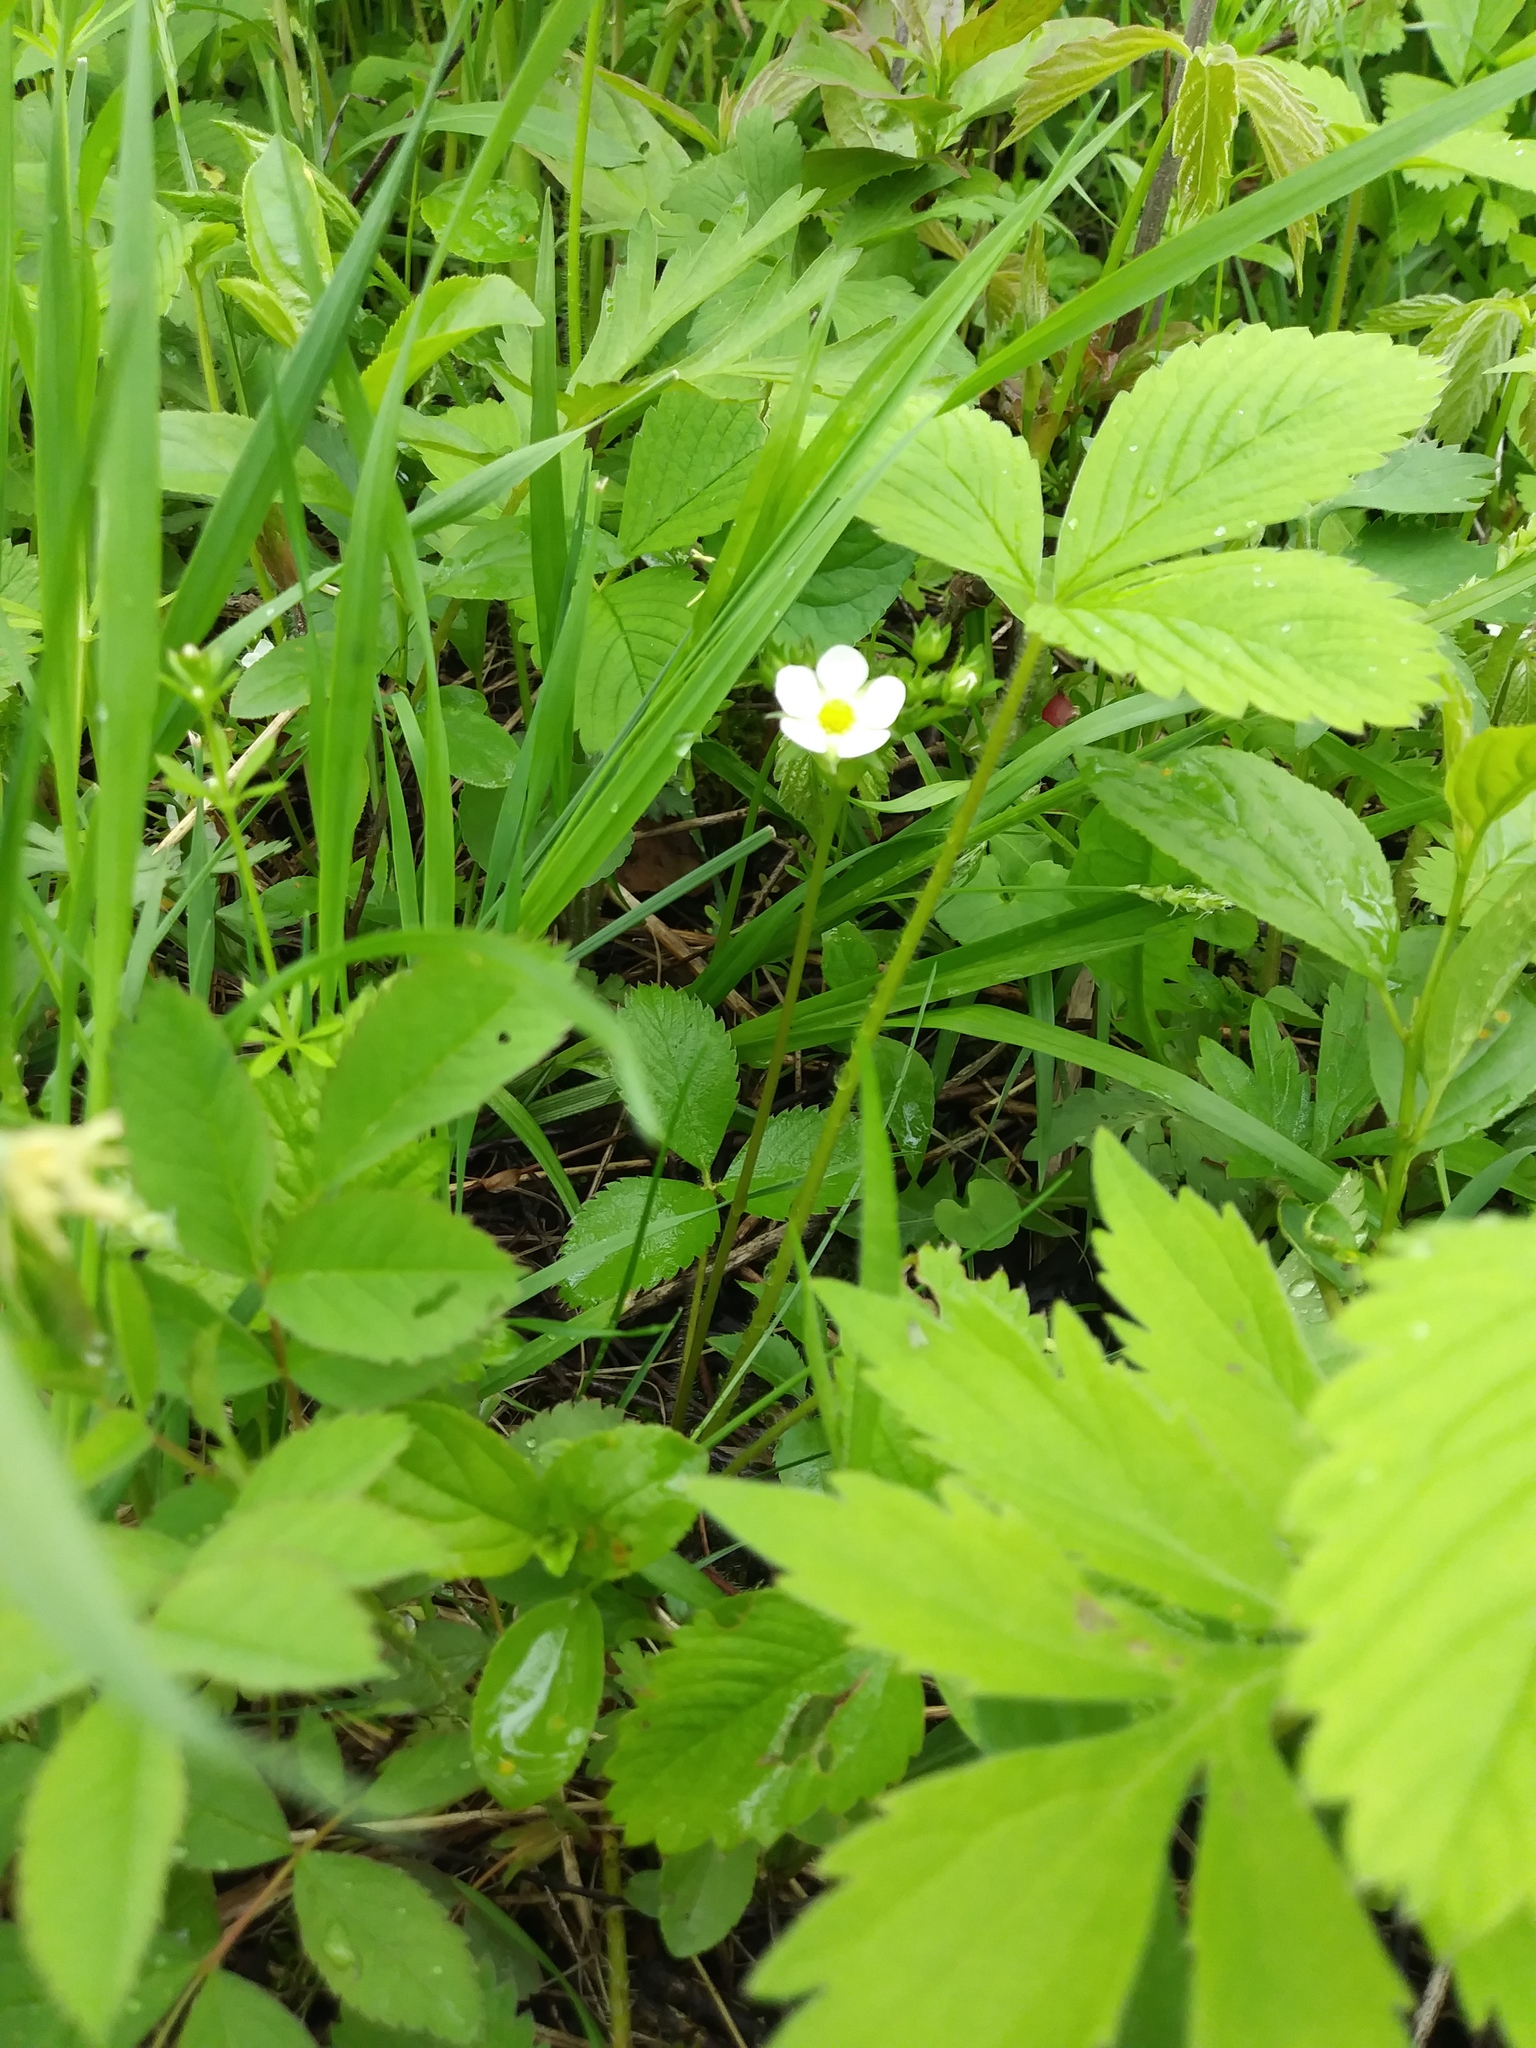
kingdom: Plantae
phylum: Tracheophyta
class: Magnoliopsida
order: Rosales
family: Rosaceae
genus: Fragaria
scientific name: Fragaria virginiana
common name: Thickleaved wild strawberry
